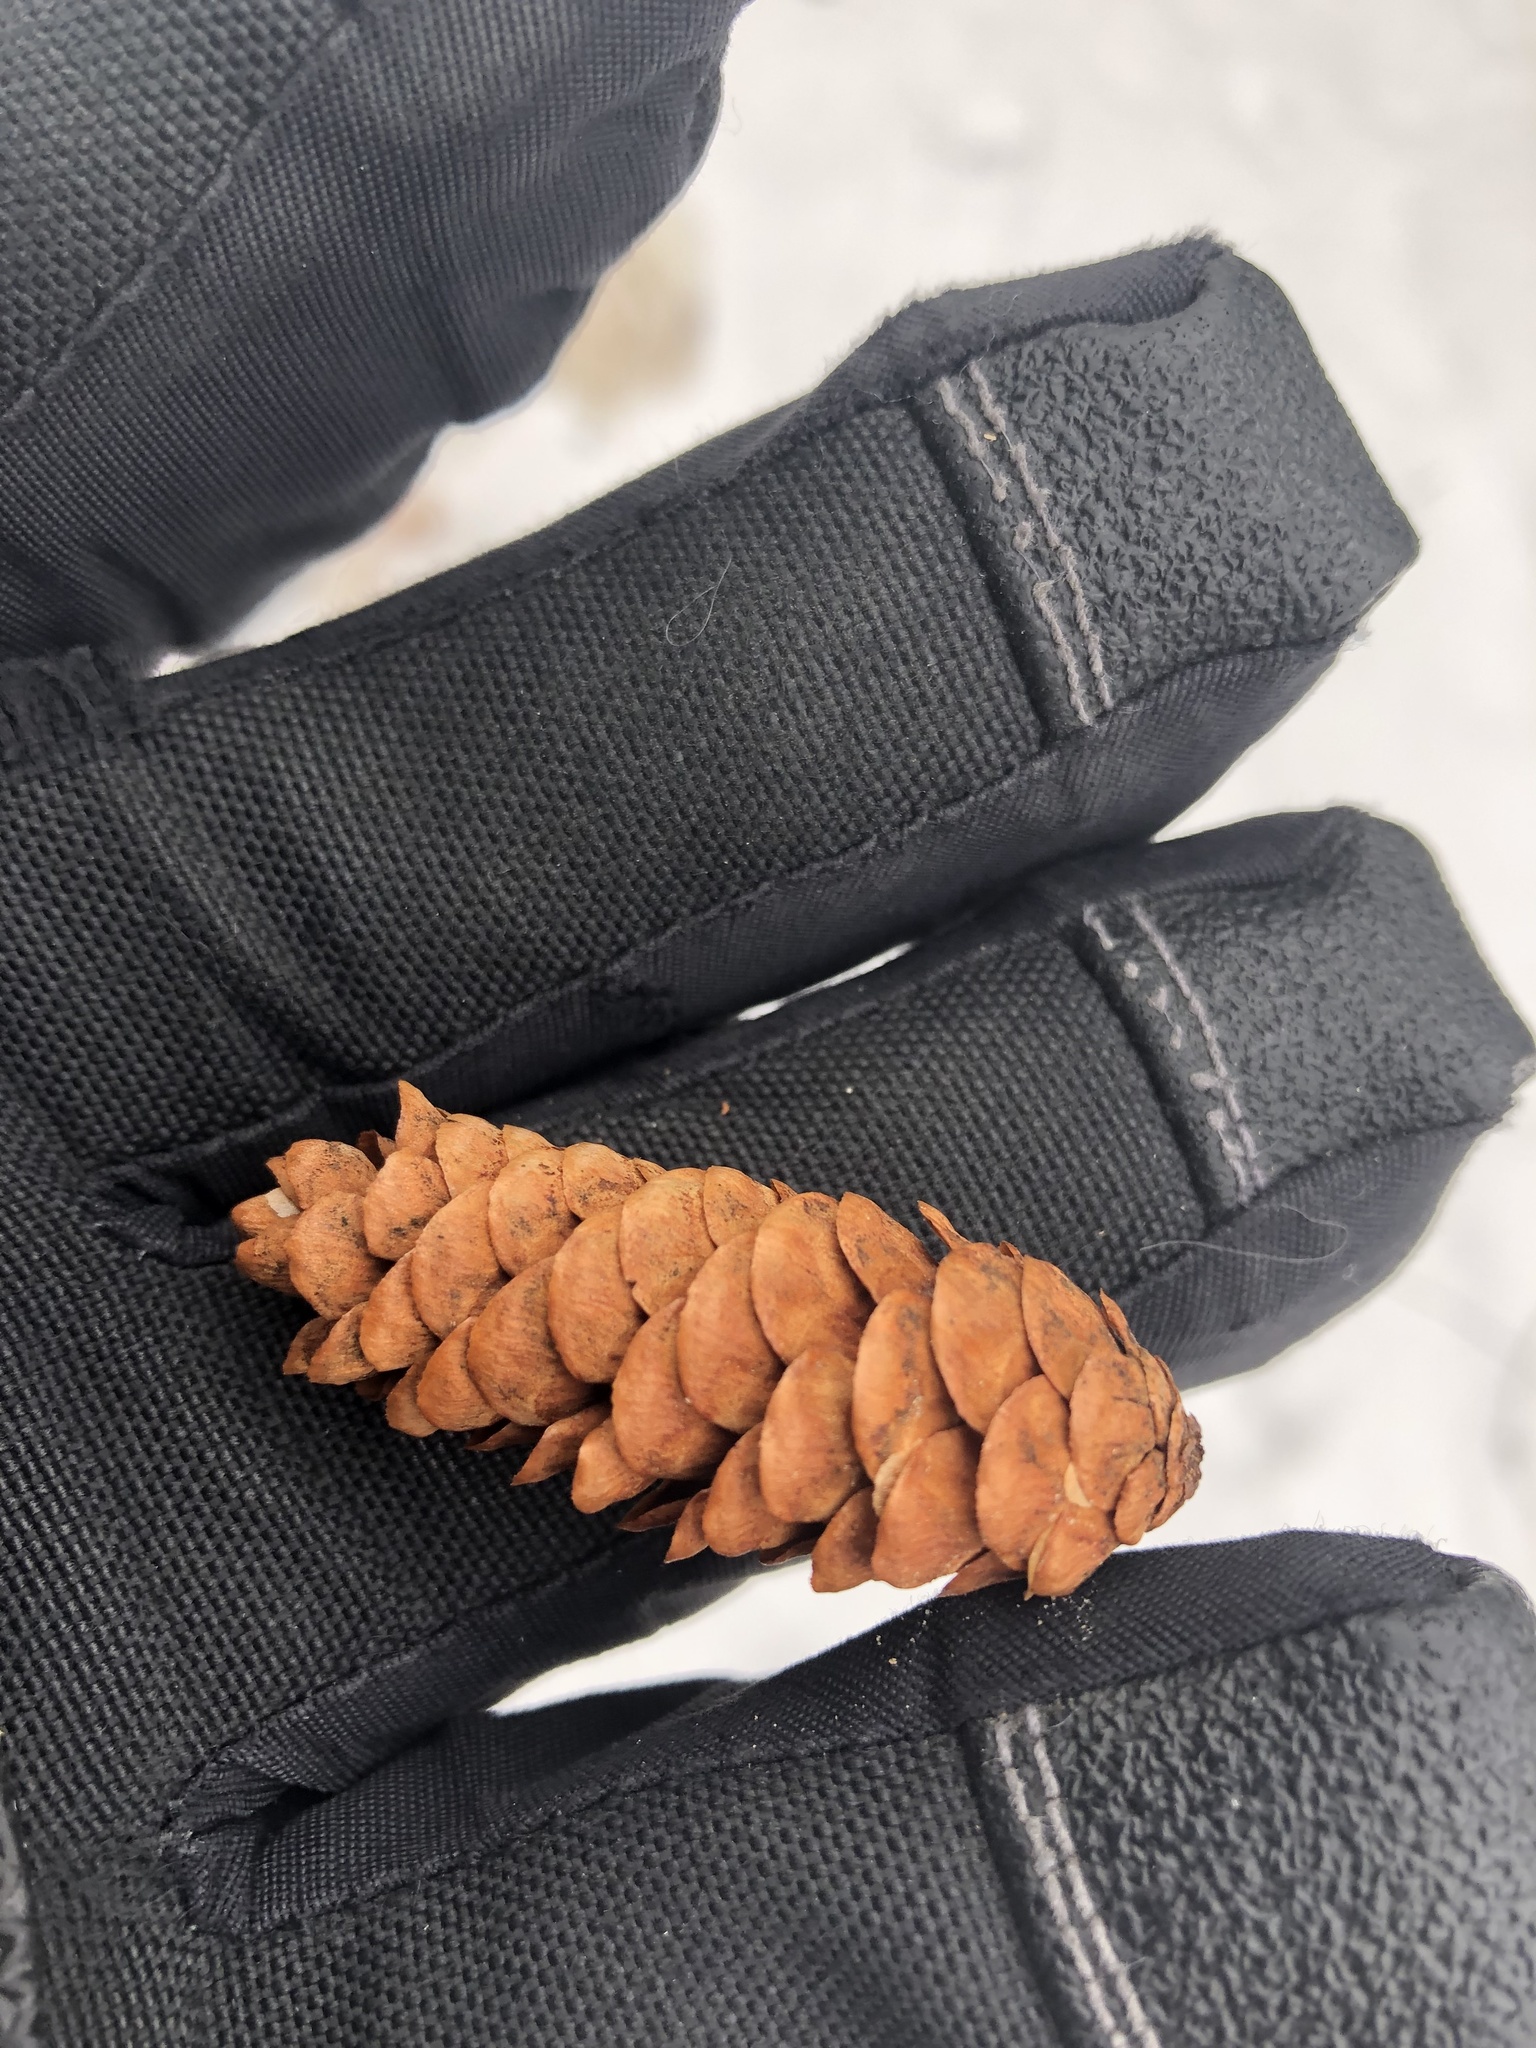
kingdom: Plantae
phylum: Tracheophyta
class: Pinopsida
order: Pinales
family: Pinaceae
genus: Picea
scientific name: Picea glauca
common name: White spruce
